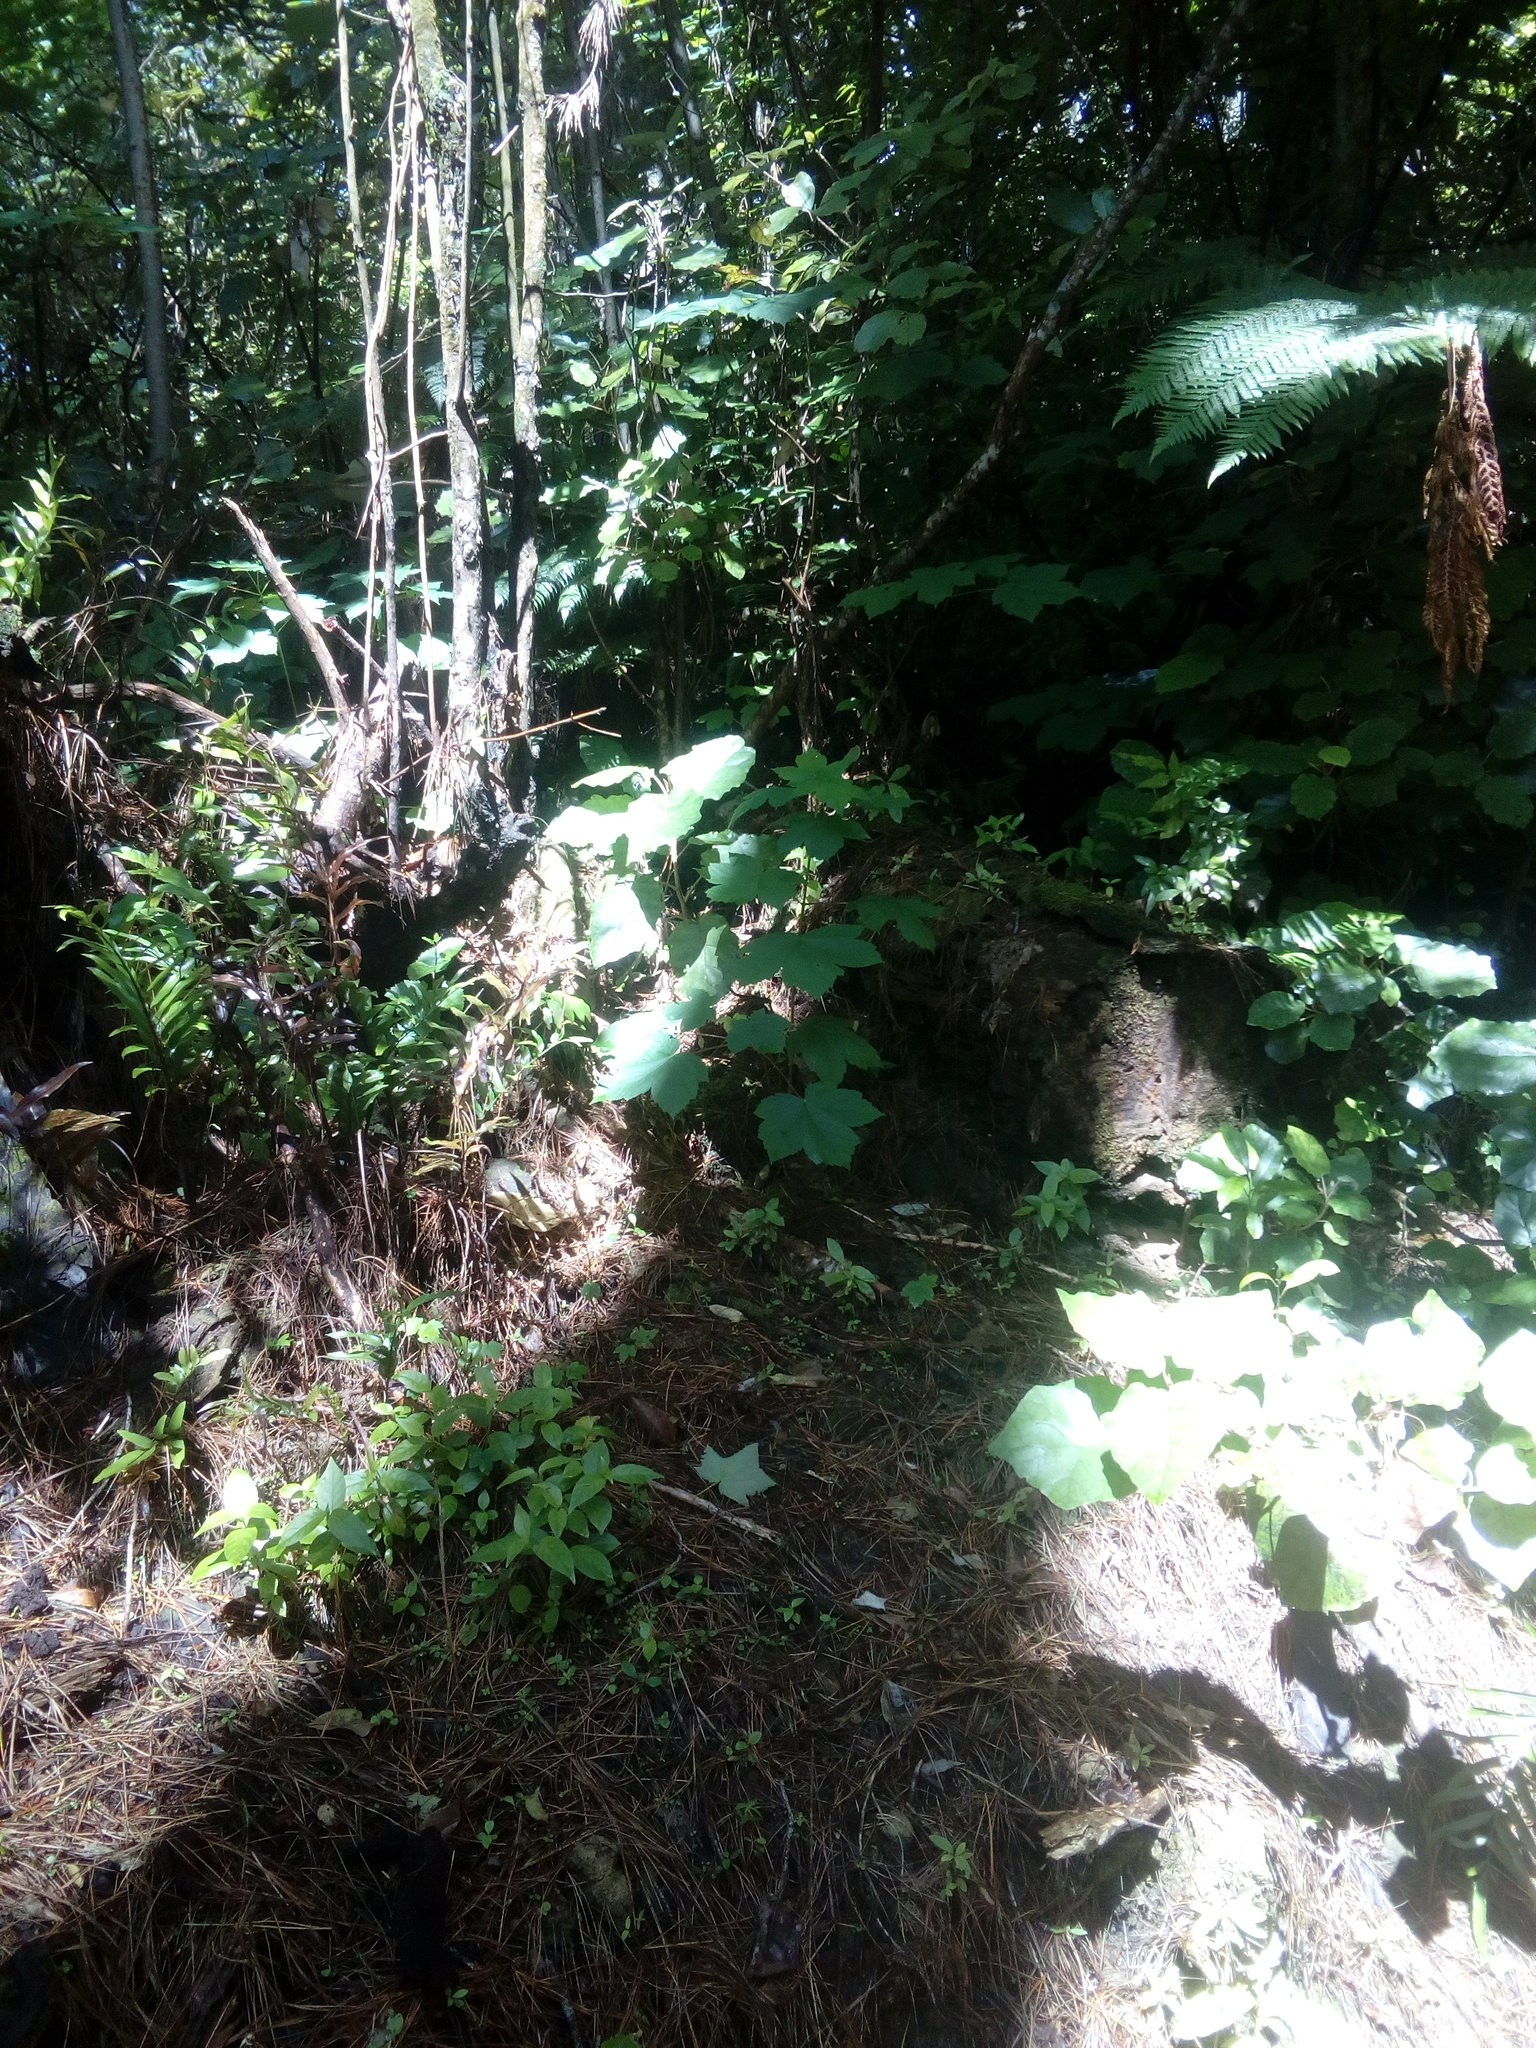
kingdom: Plantae
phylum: Tracheophyta
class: Magnoliopsida
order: Sapindales
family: Sapindaceae
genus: Acer
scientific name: Acer pseudoplatanus
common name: Sycamore
